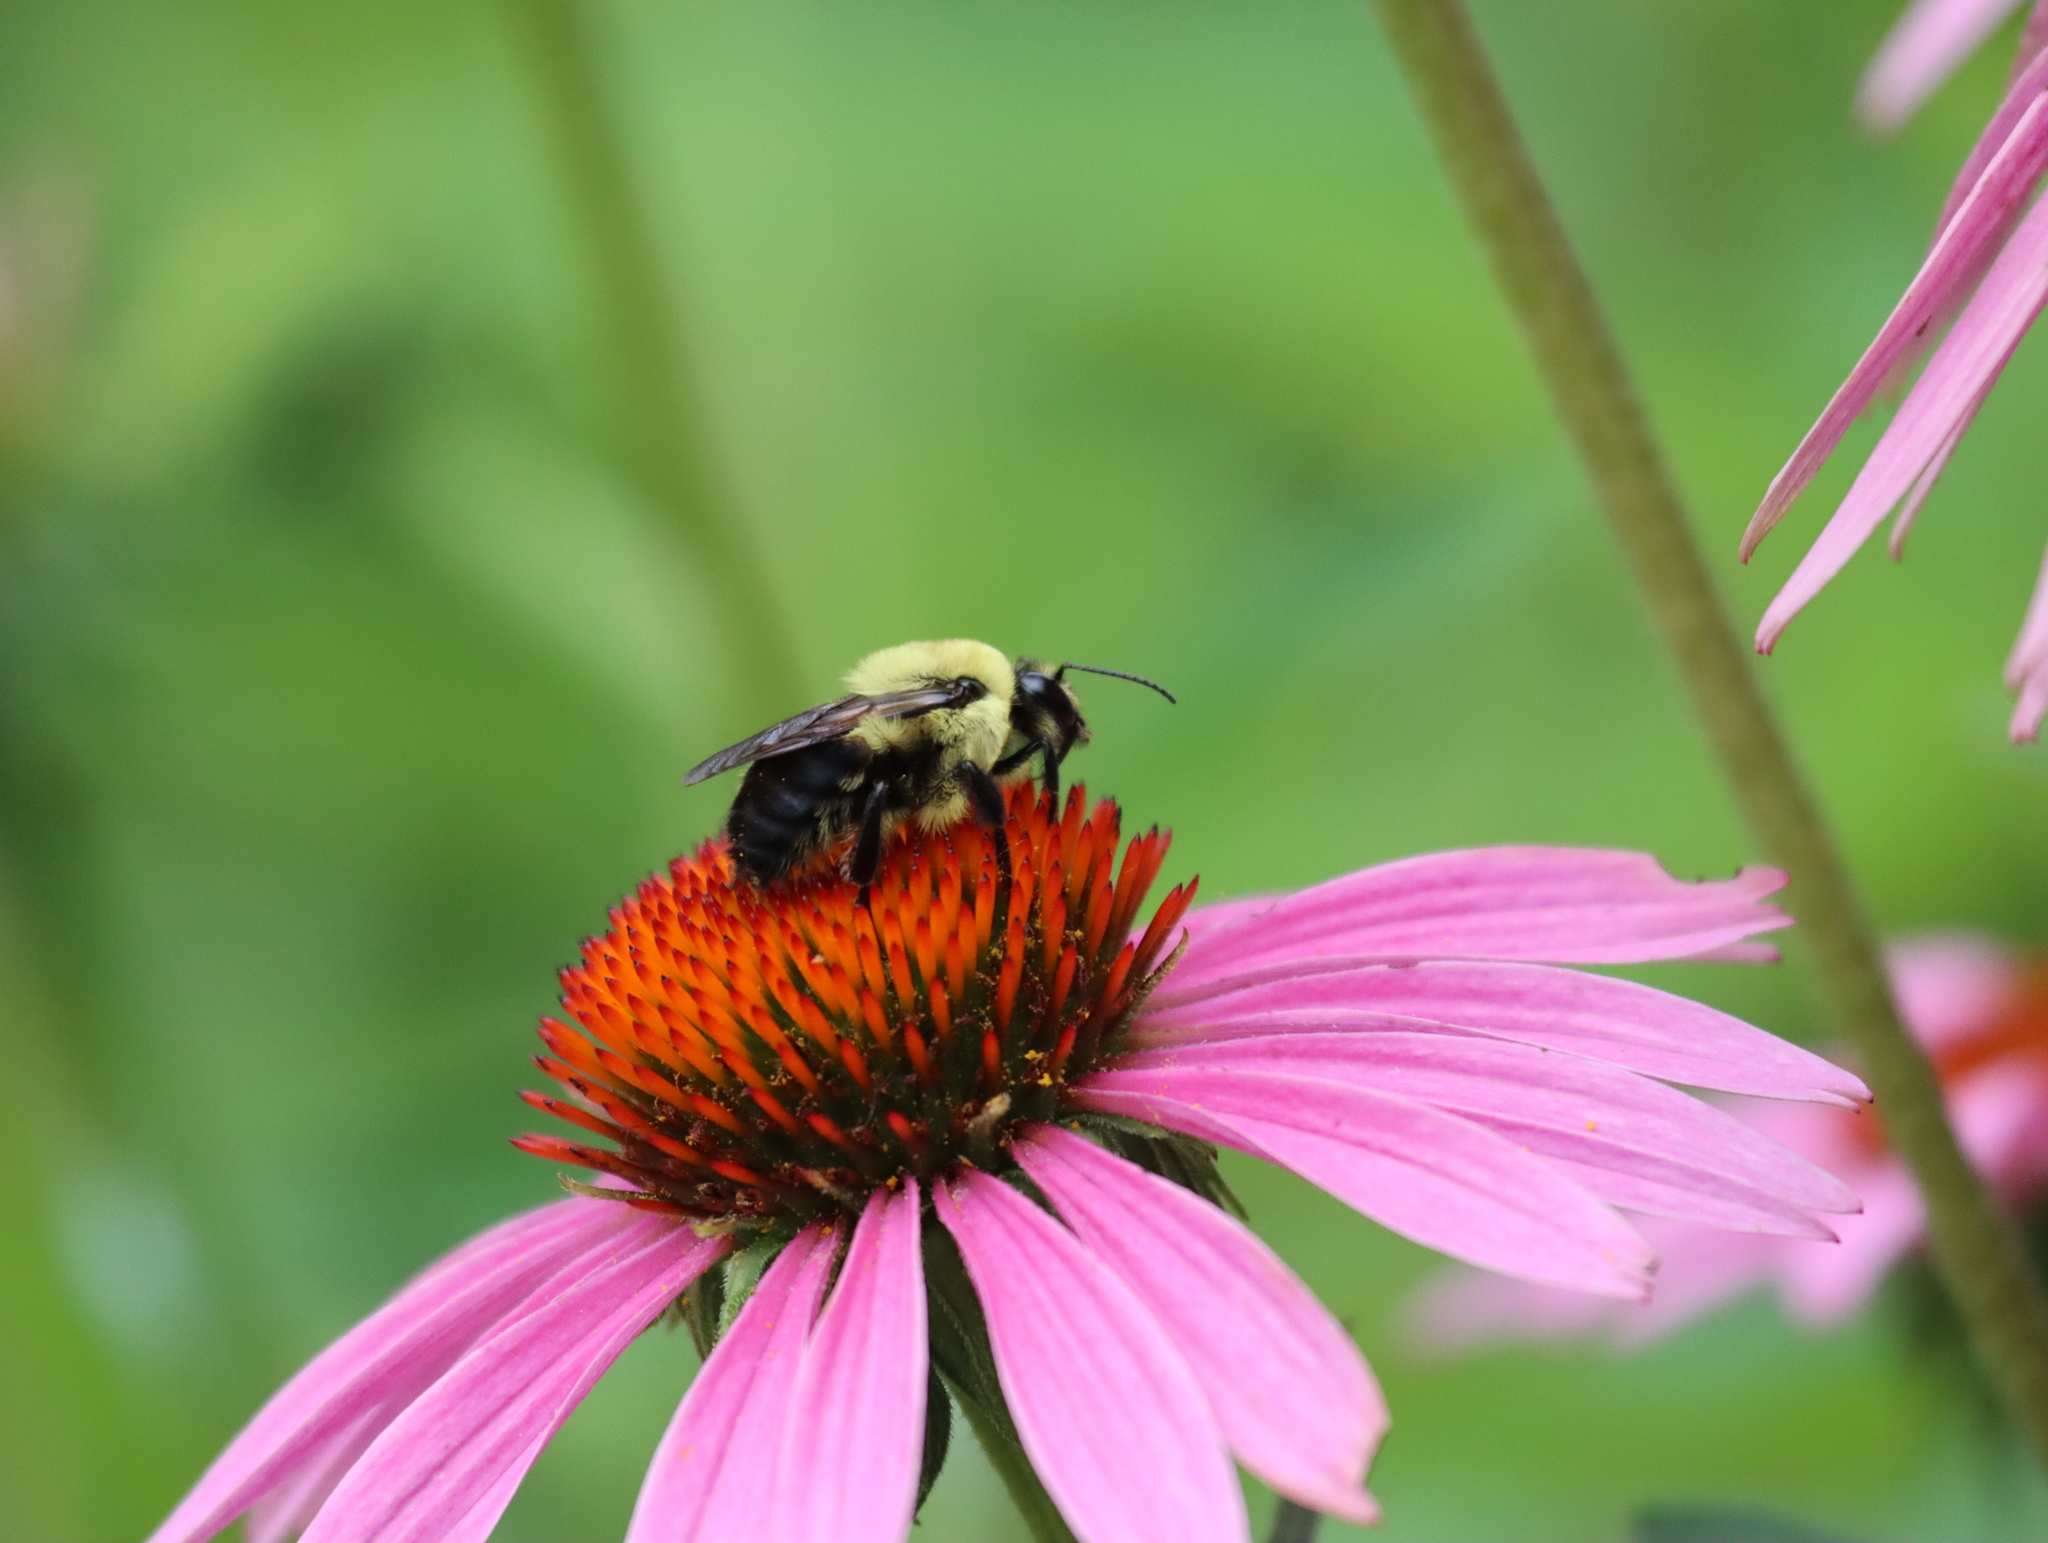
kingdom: Animalia
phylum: Arthropoda
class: Insecta
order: Hymenoptera
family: Apidae
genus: Bombus
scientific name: Bombus griseocollis
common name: Brown-belted bumble bee
